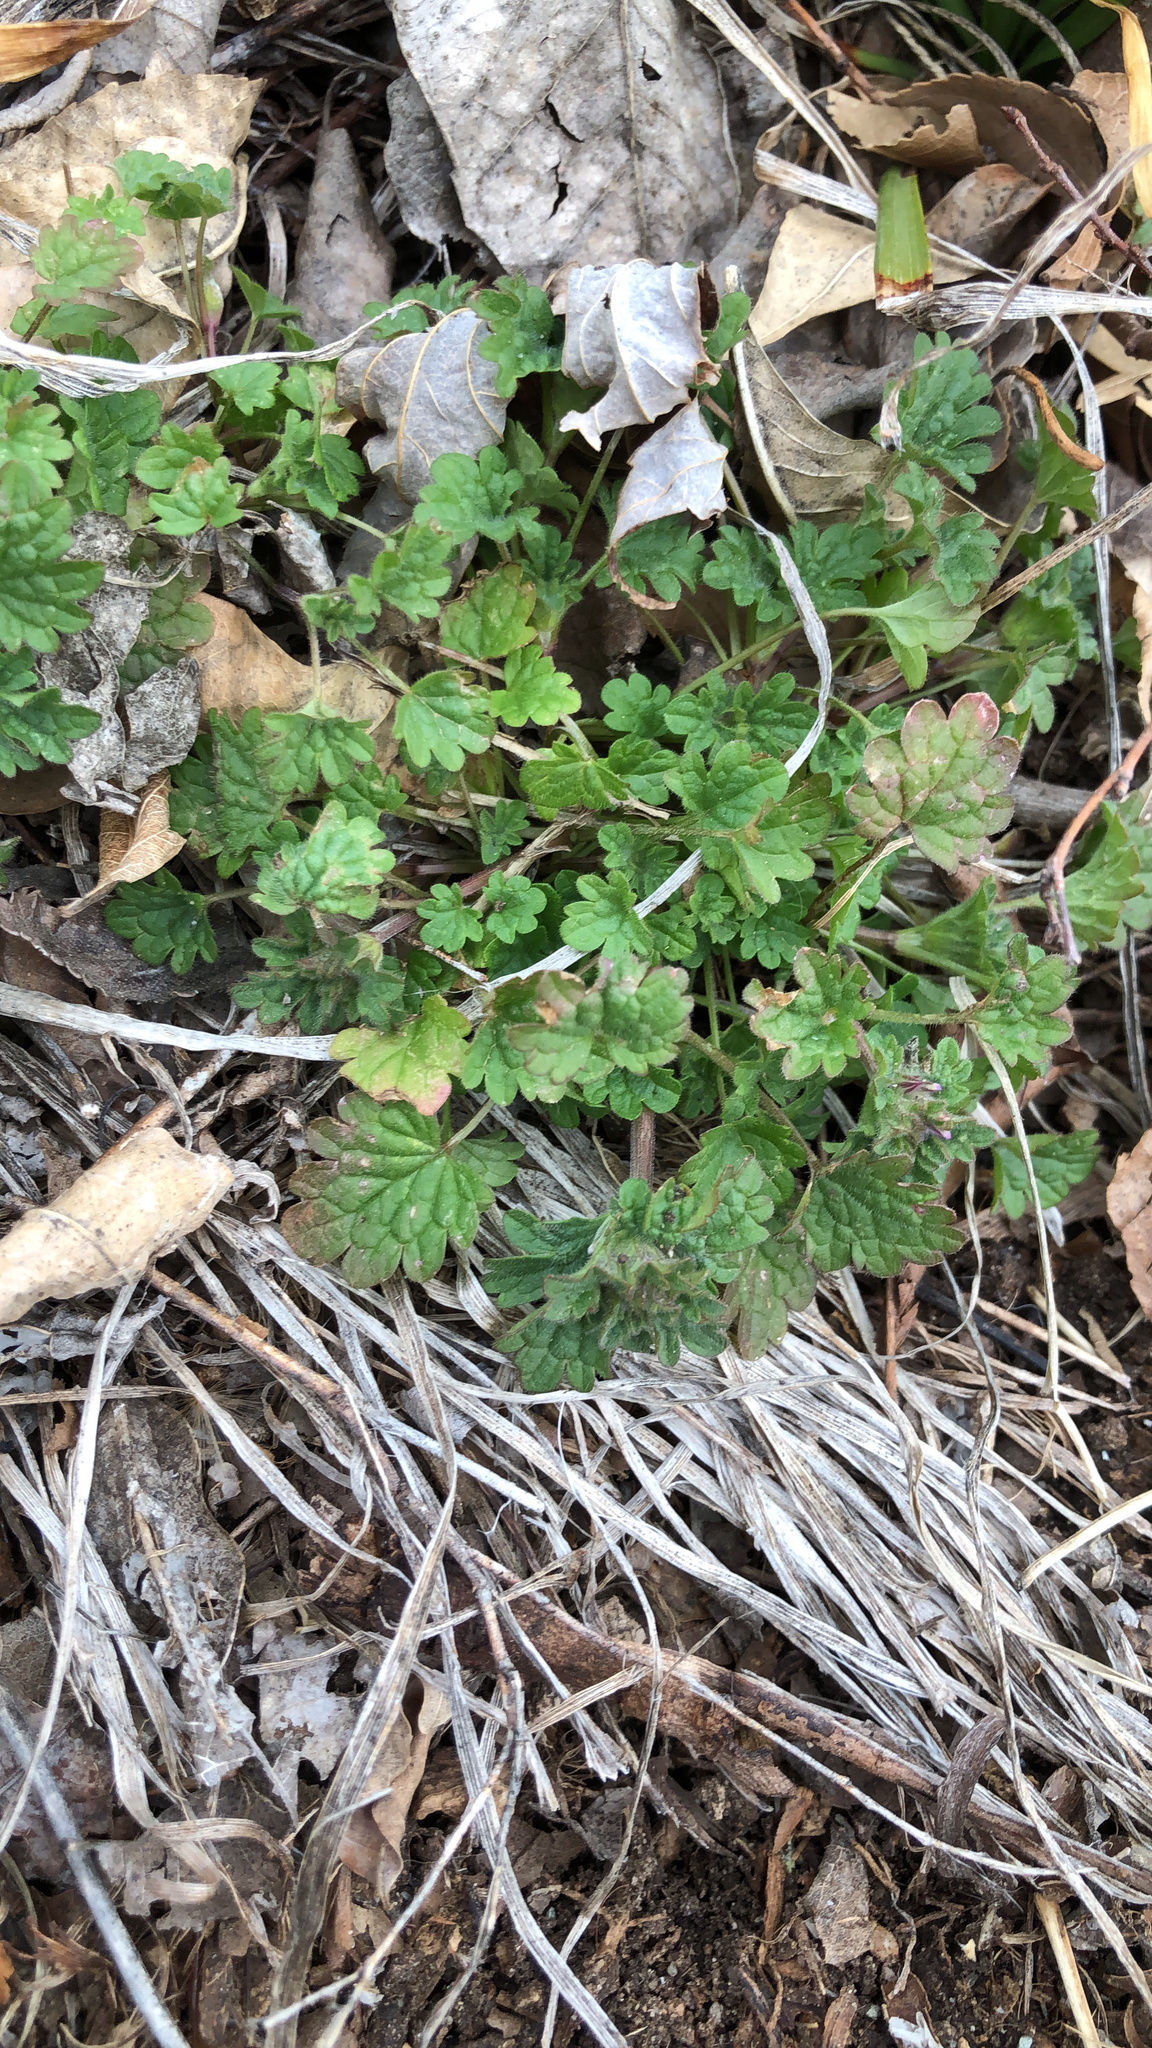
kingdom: Plantae
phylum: Tracheophyta
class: Magnoliopsida
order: Lamiales
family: Lamiaceae
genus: Lamium
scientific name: Lamium amplexicaule
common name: Henbit dead-nettle
